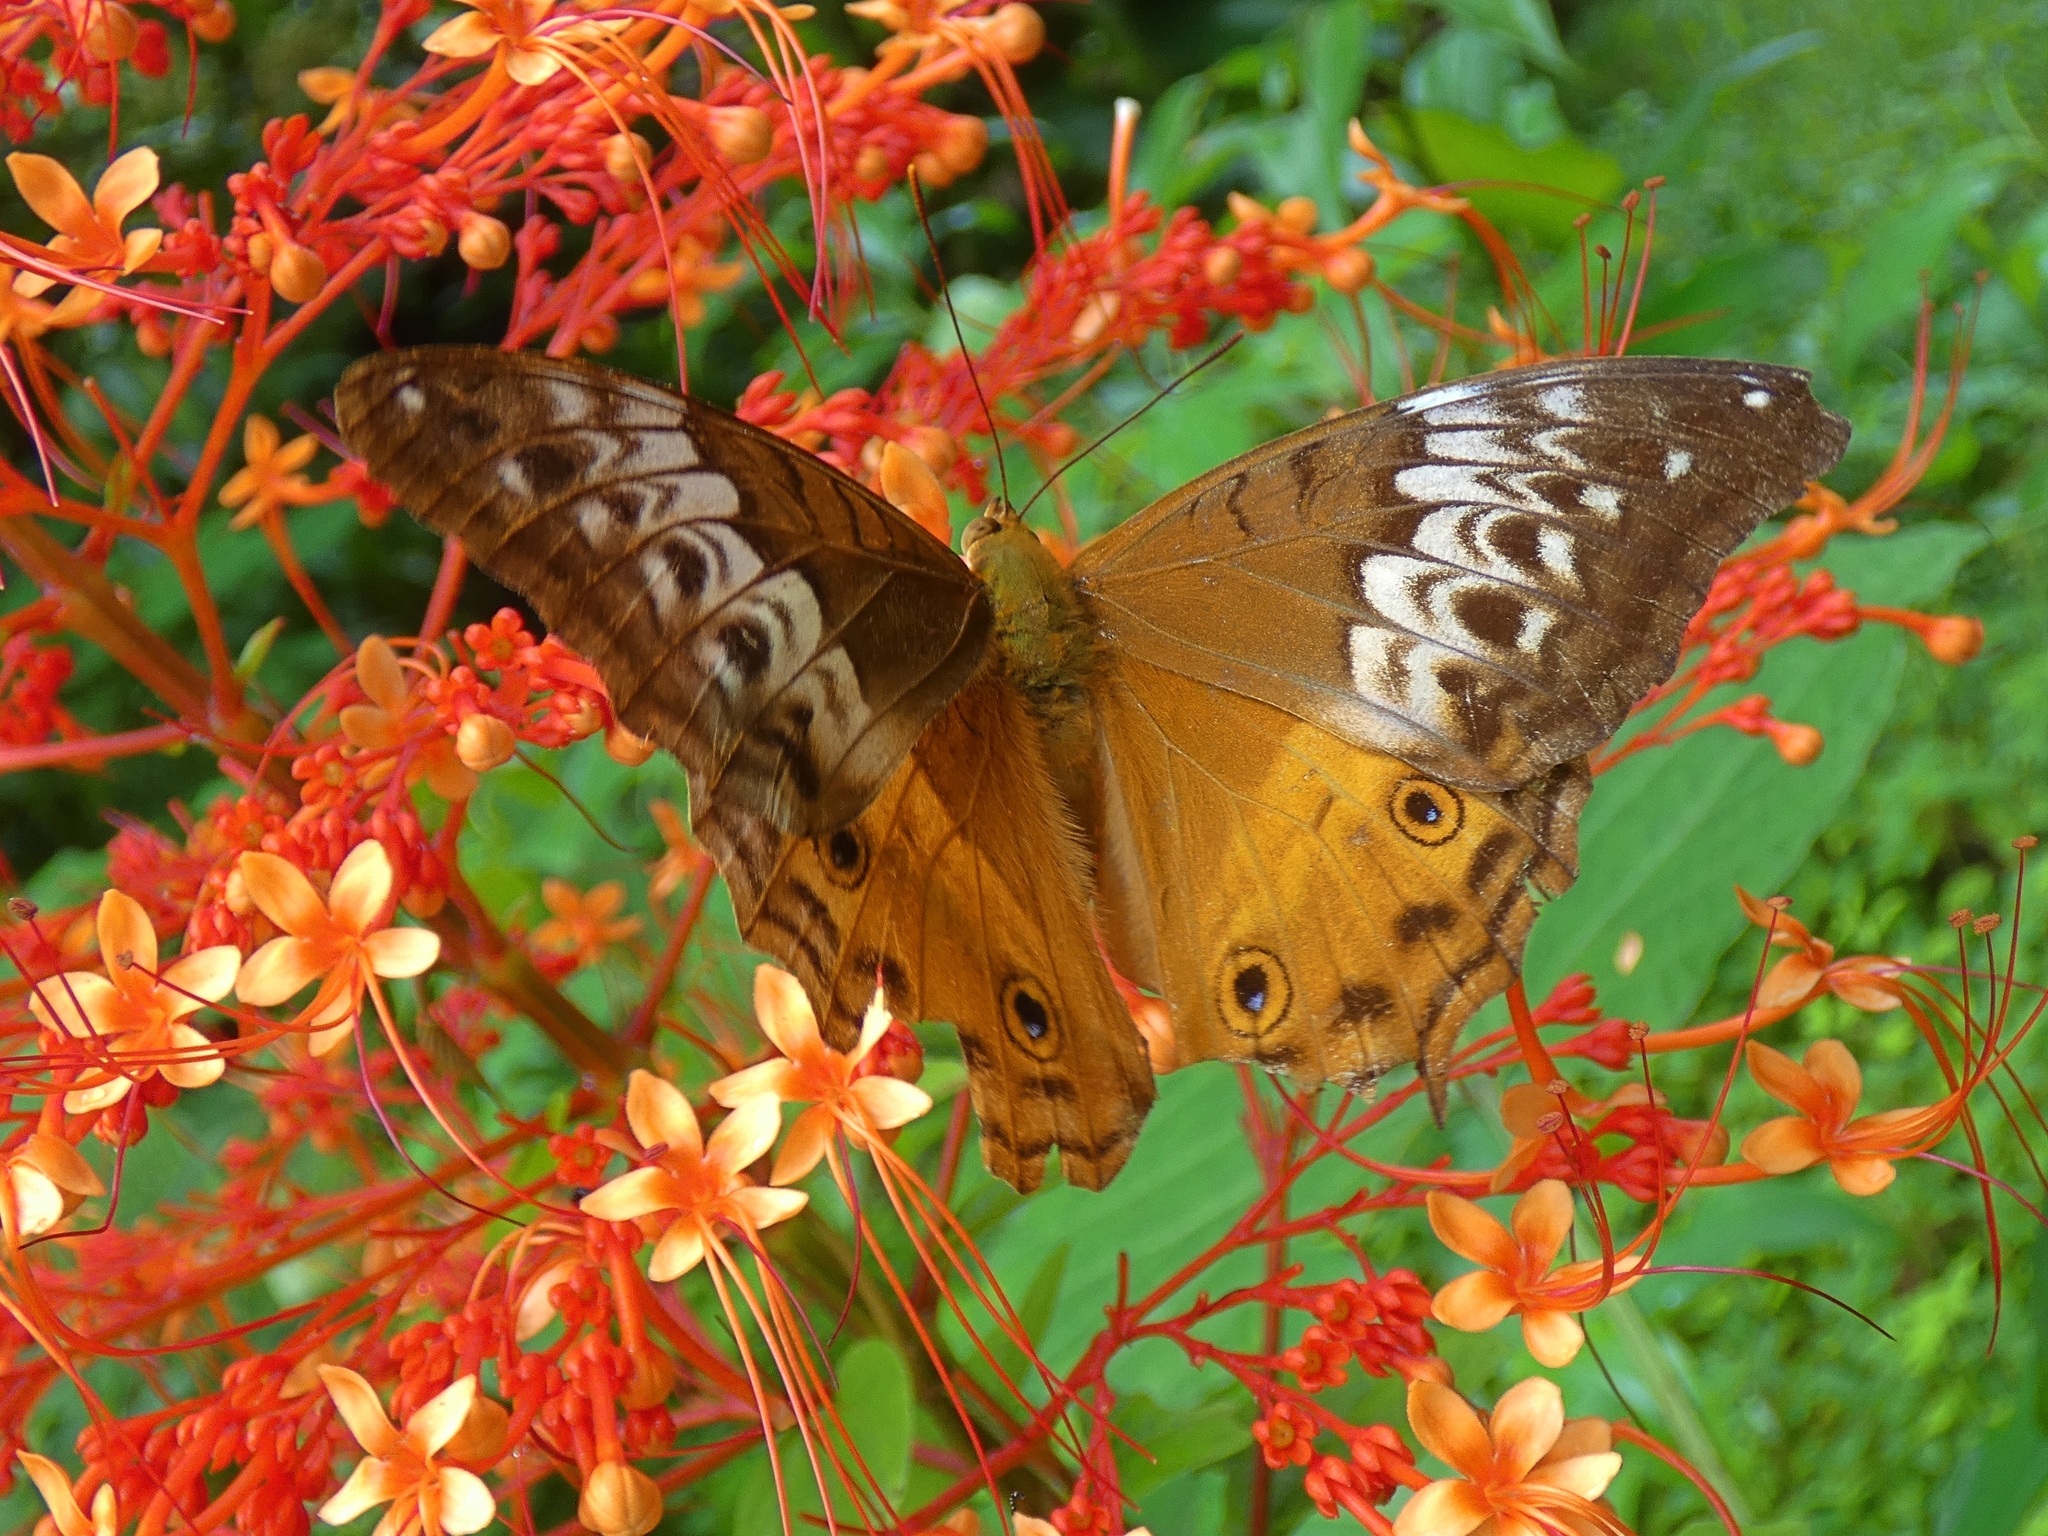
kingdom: Animalia
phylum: Arthropoda
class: Insecta
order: Lepidoptera
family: Nymphalidae
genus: Vindula
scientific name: Vindula arsinoe
